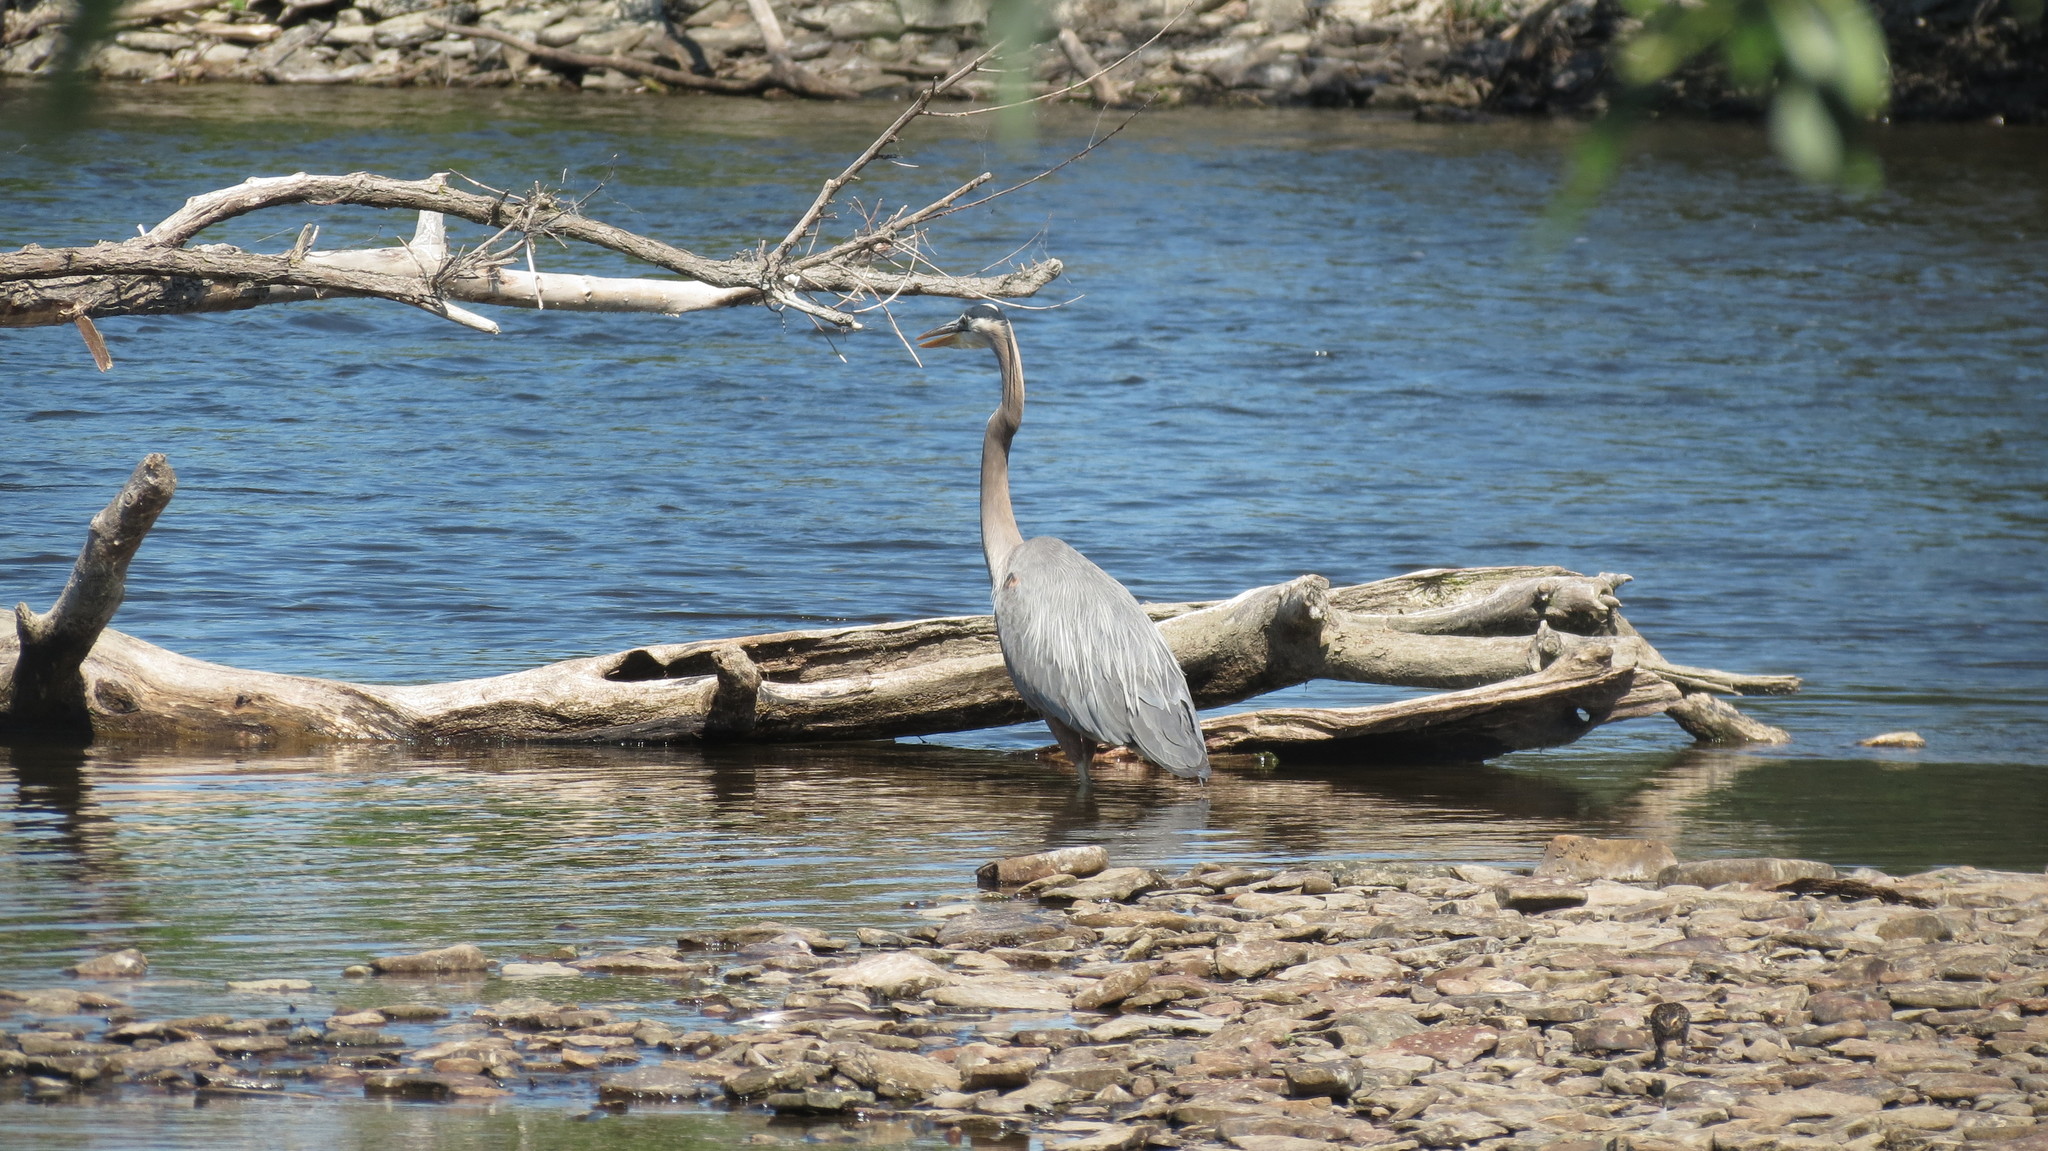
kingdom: Animalia
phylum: Chordata
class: Aves
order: Pelecaniformes
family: Ardeidae
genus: Ardea
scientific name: Ardea herodias
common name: Great blue heron
